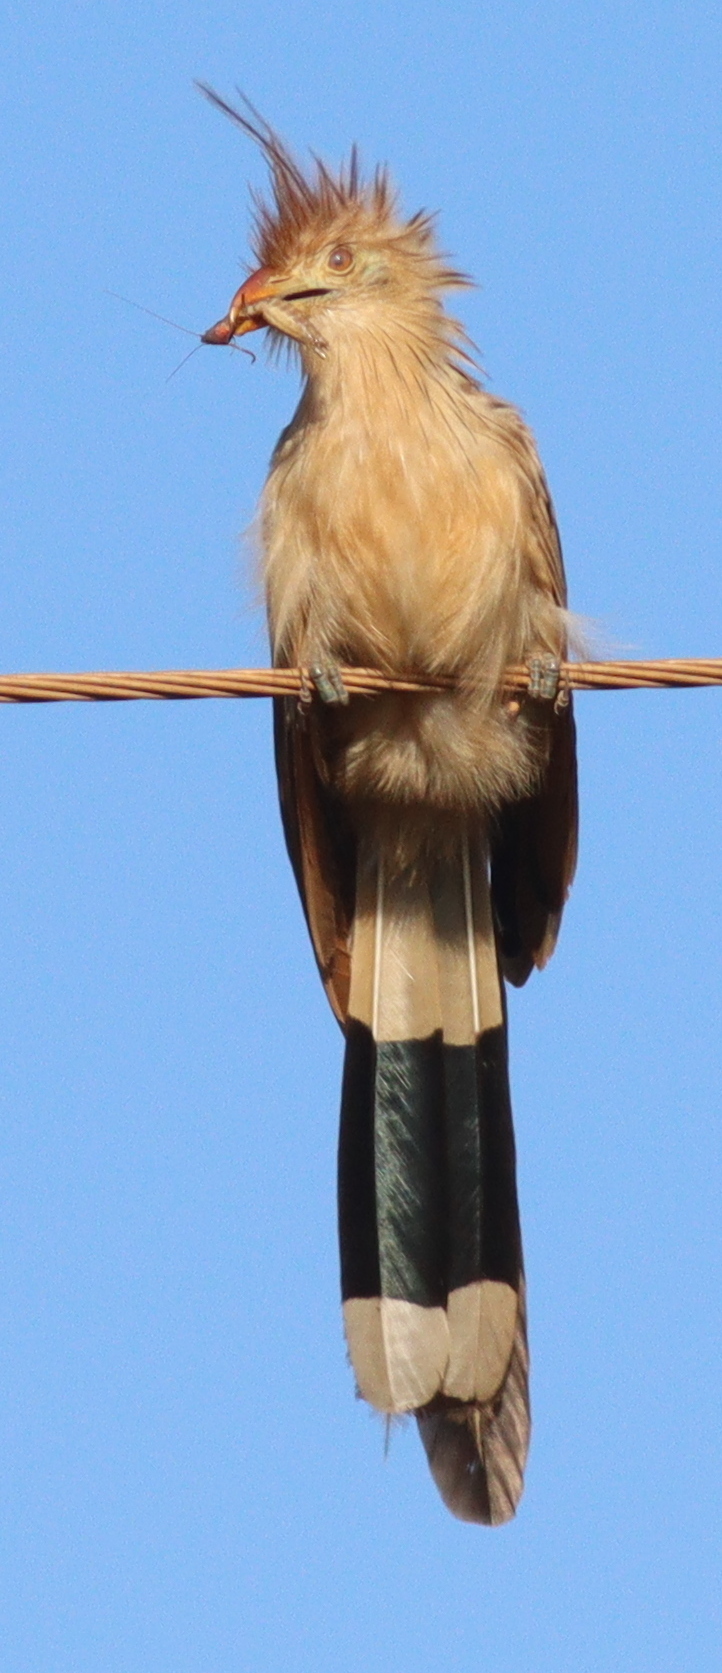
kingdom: Animalia
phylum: Chordata
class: Aves
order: Cuculiformes
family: Cuculidae
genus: Guira
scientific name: Guira guira
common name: Guira cuckoo
